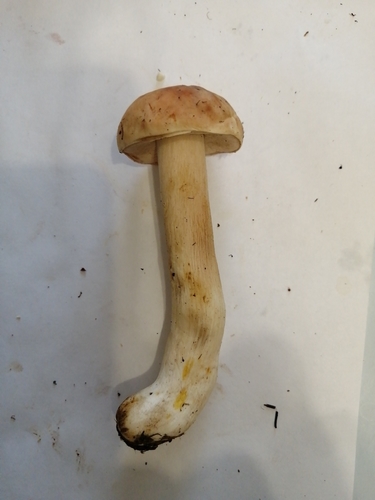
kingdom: Fungi
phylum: Basidiomycota
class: Agaricomycetes
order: Boletales
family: Boletaceae
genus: Boletus
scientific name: Boletus edulis
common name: Cep
